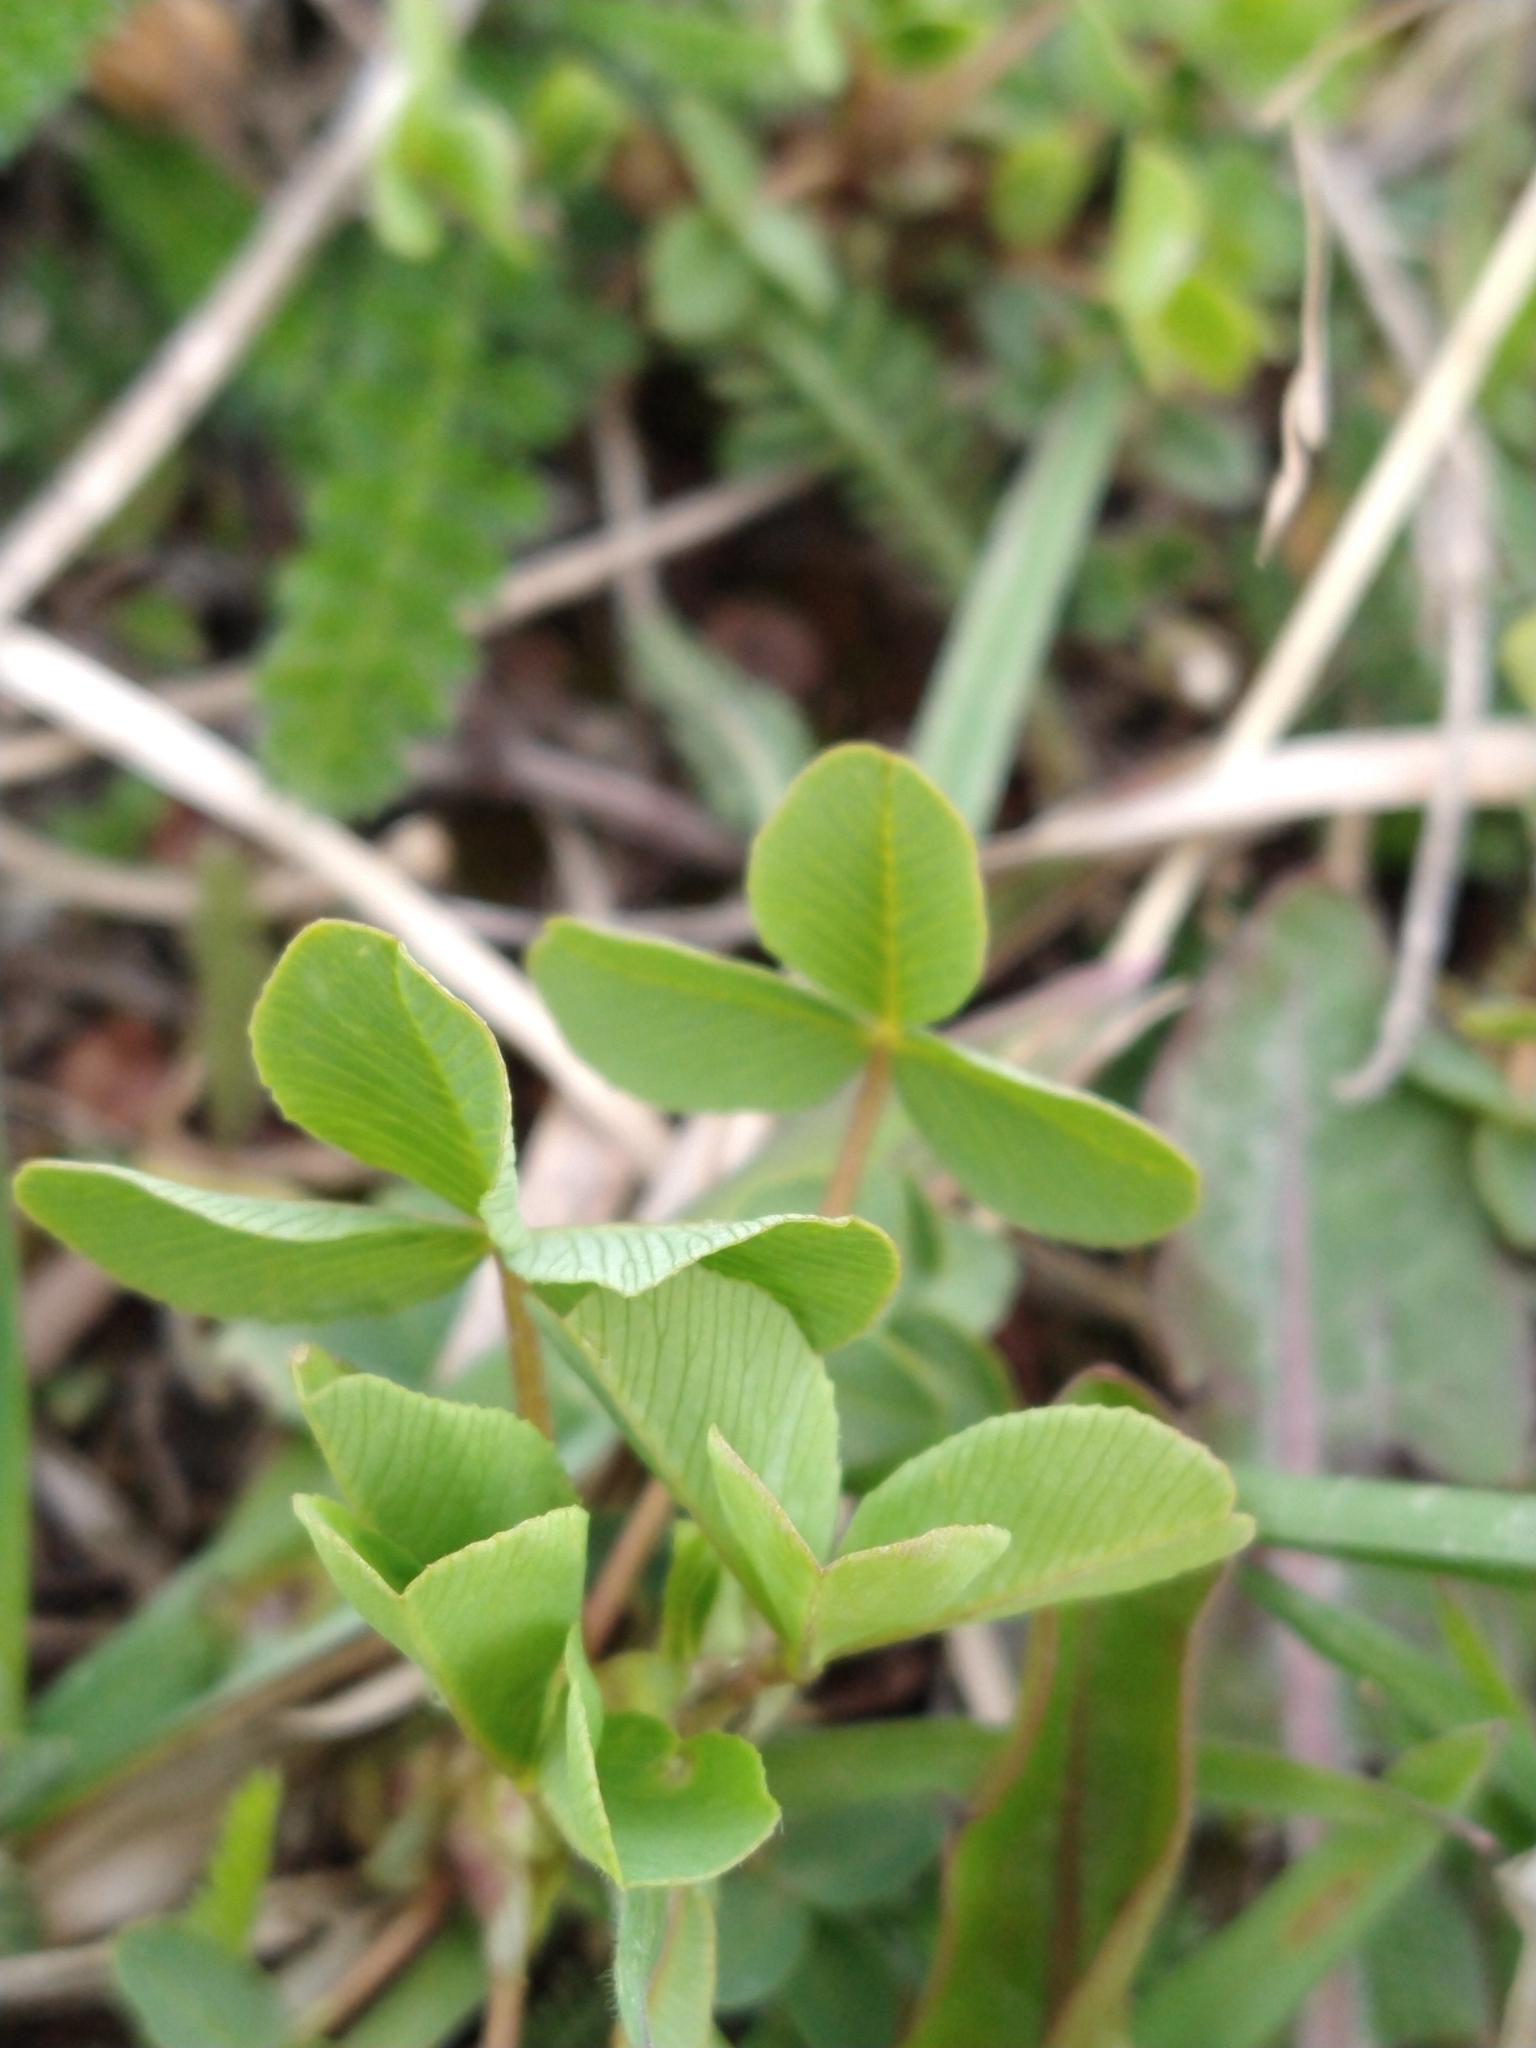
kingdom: Plantae
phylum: Tracheophyta
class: Magnoliopsida
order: Fabales
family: Fabaceae
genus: Trifolium
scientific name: Trifolium dubium
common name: Suckling clover
